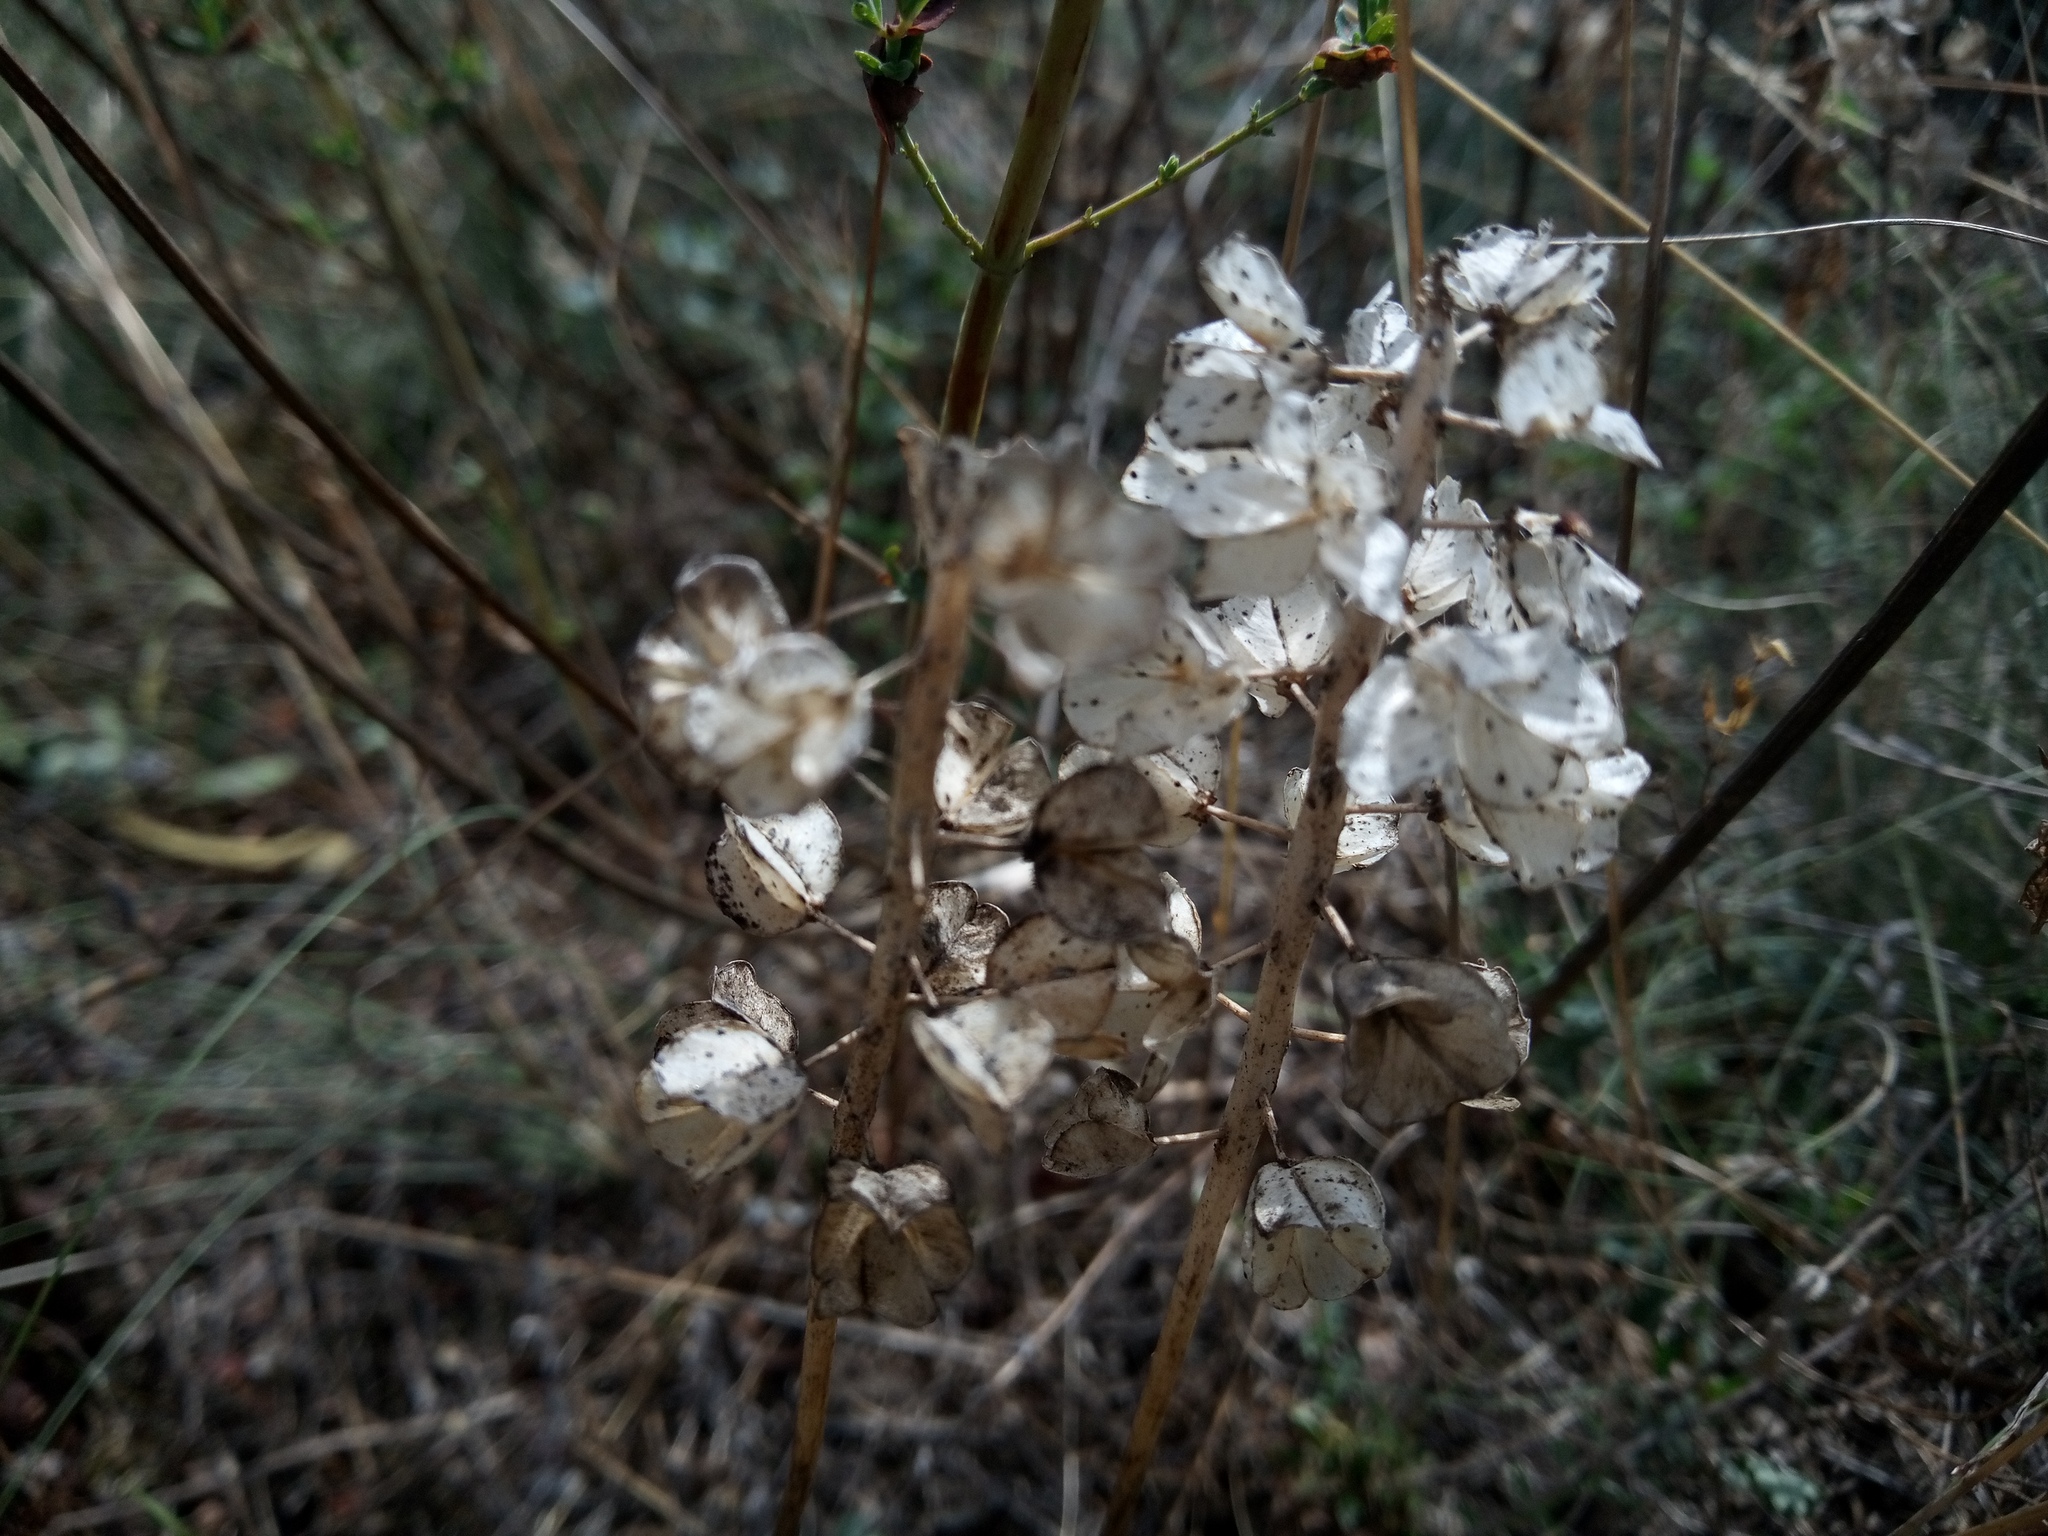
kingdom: Plantae
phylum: Tracheophyta
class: Liliopsida
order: Asparagales
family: Asparagaceae
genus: Muscari
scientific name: Muscari neglectum
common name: Grape-hyacinth
